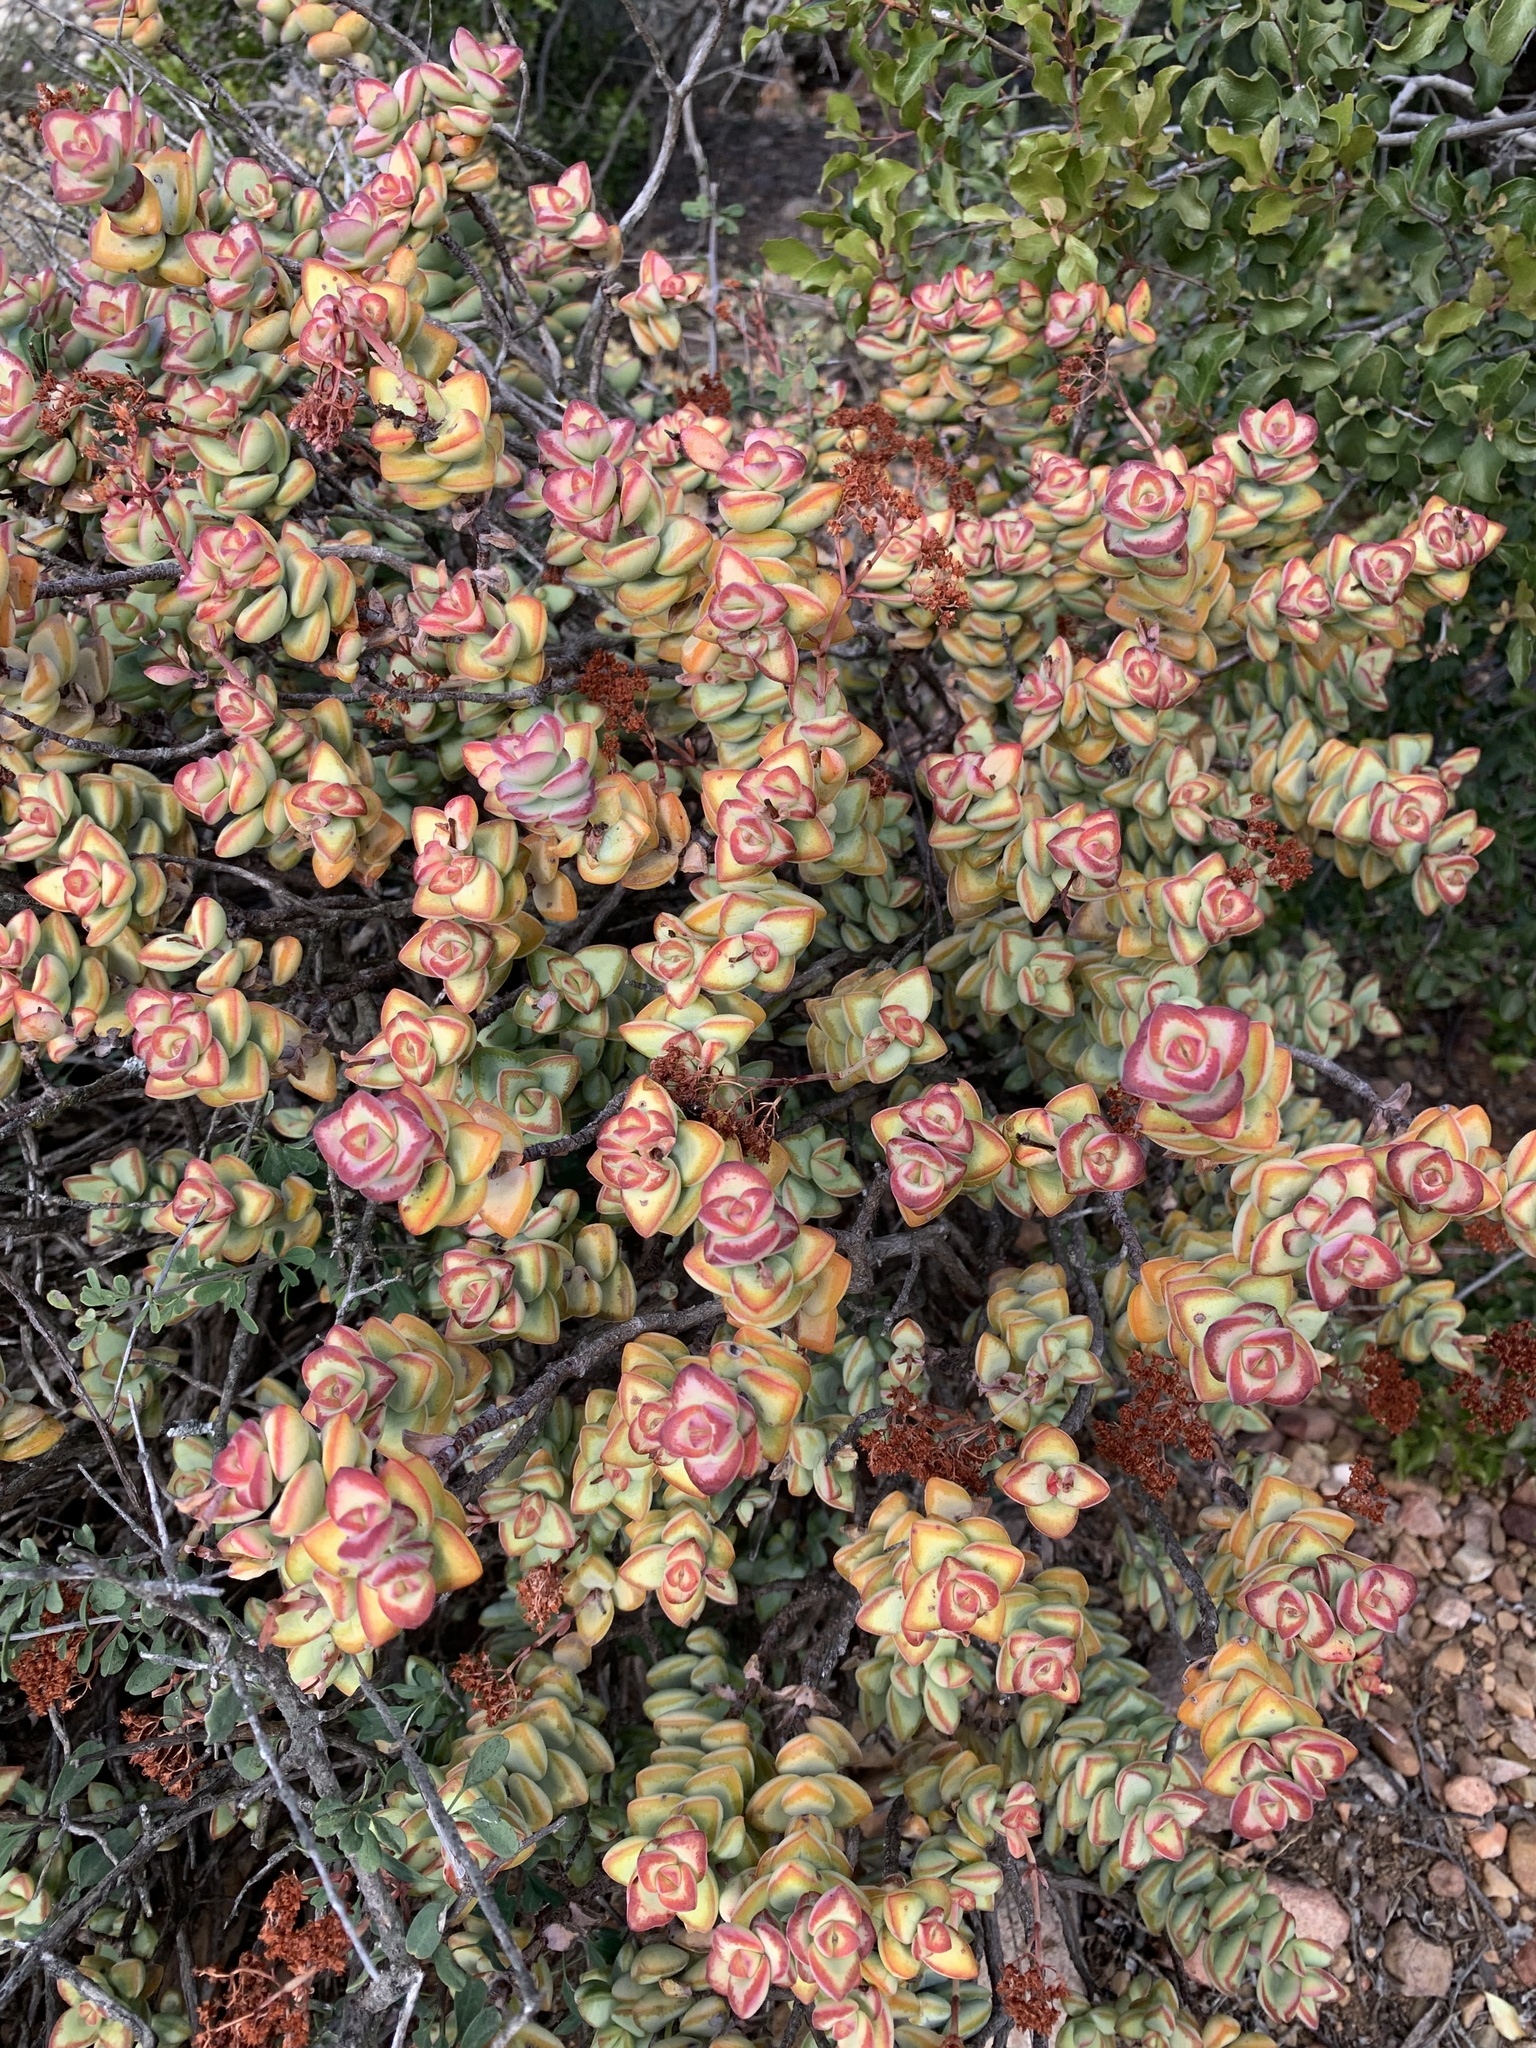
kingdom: Plantae
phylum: Tracheophyta
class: Magnoliopsida
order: Saxifragales
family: Crassulaceae
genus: Crassula
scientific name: Crassula rupestris
